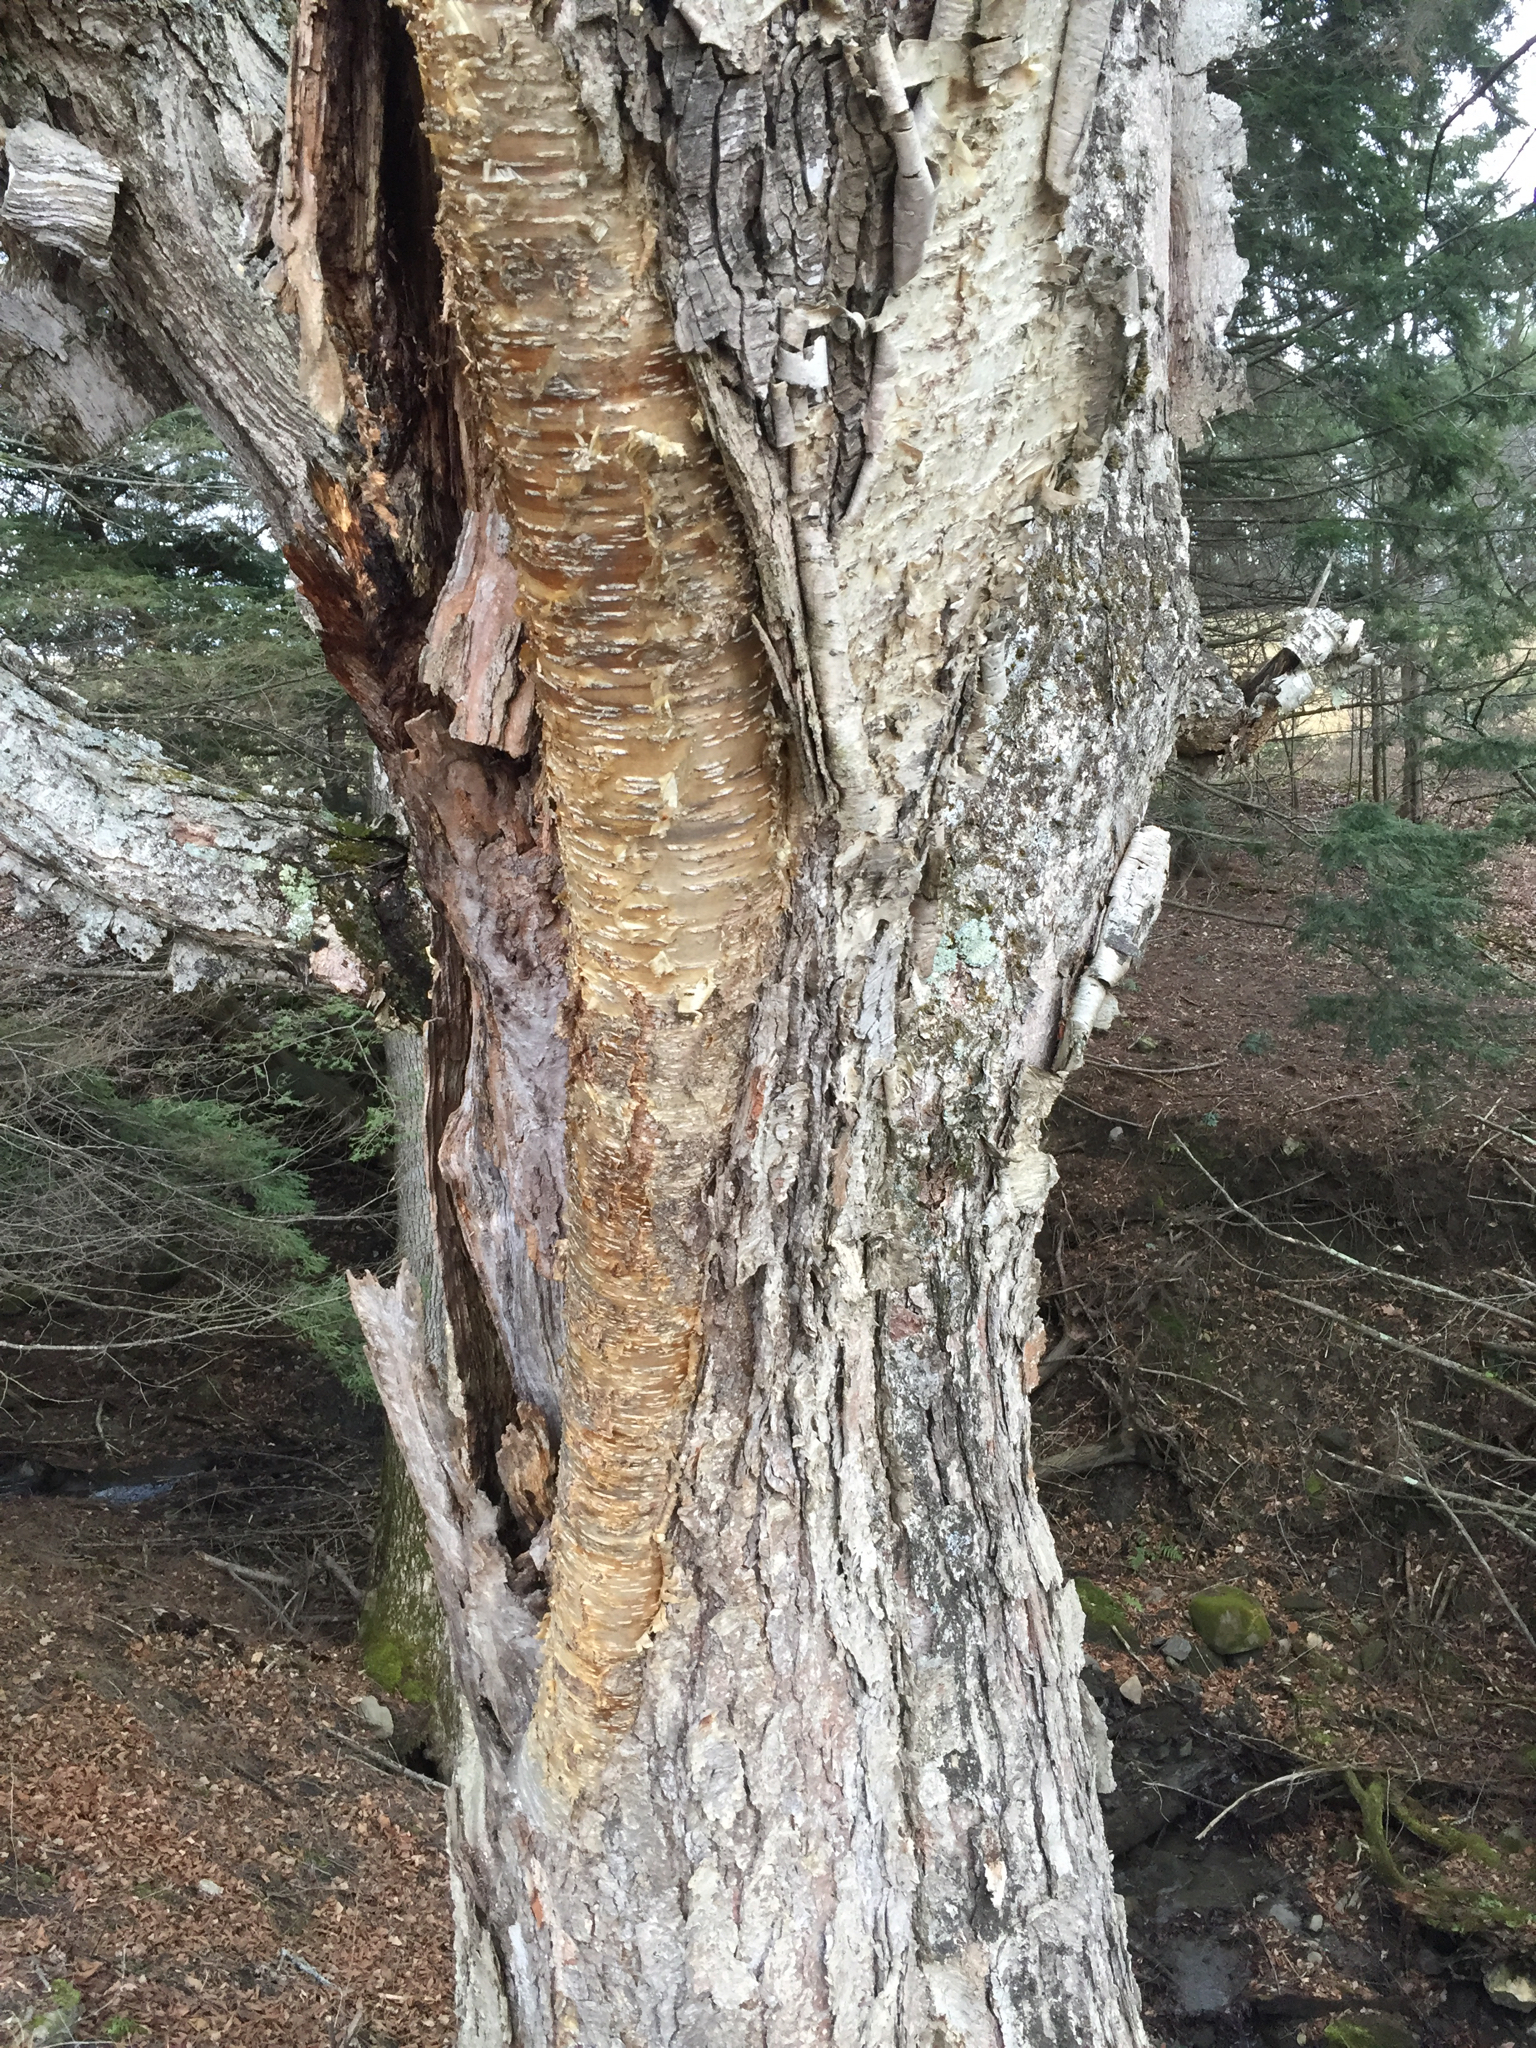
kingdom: Plantae
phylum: Tracheophyta
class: Magnoliopsida
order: Fagales
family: Betulaceae
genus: Betula
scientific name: Betula alleghaniensis
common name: Yellow birch
